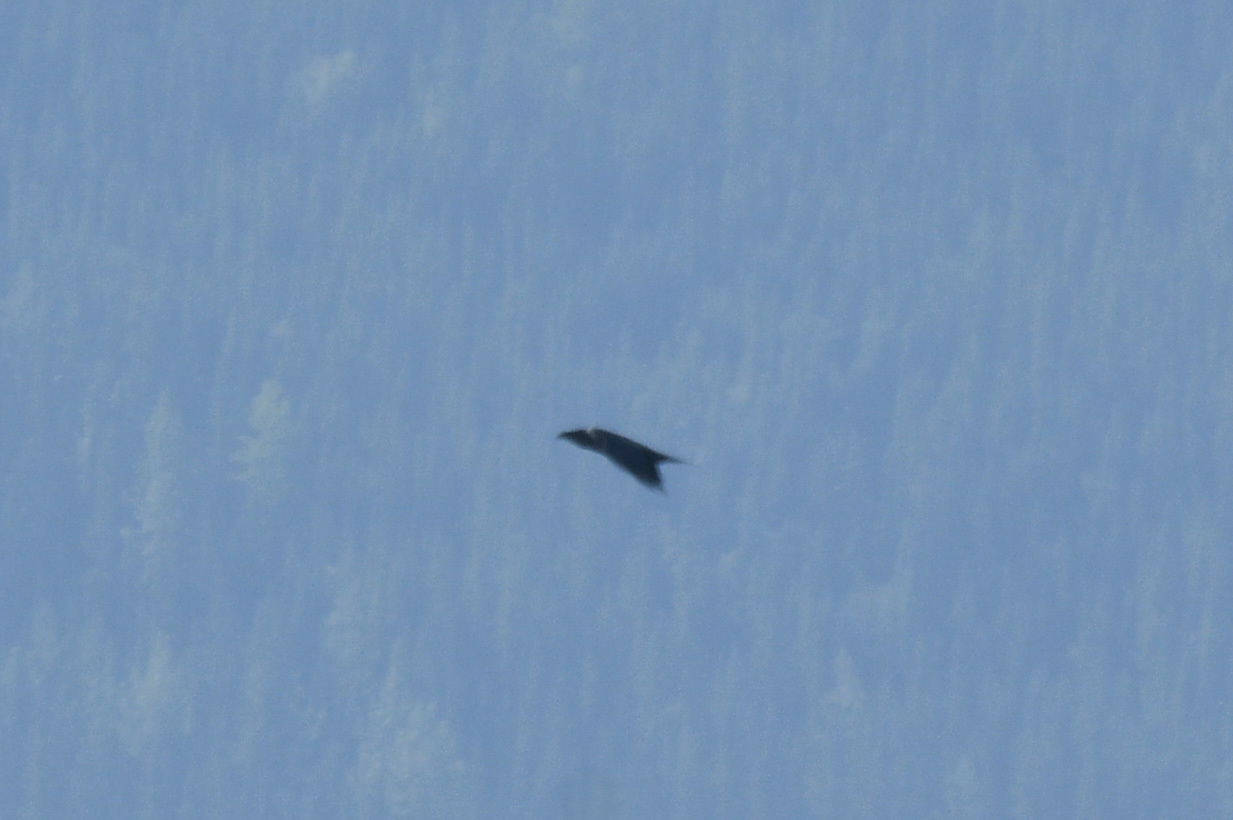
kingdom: Animalia
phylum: Chordata
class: Aves
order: Passeriformes
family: Corvidae
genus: Corvus
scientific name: Corvus corax
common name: Common raven
